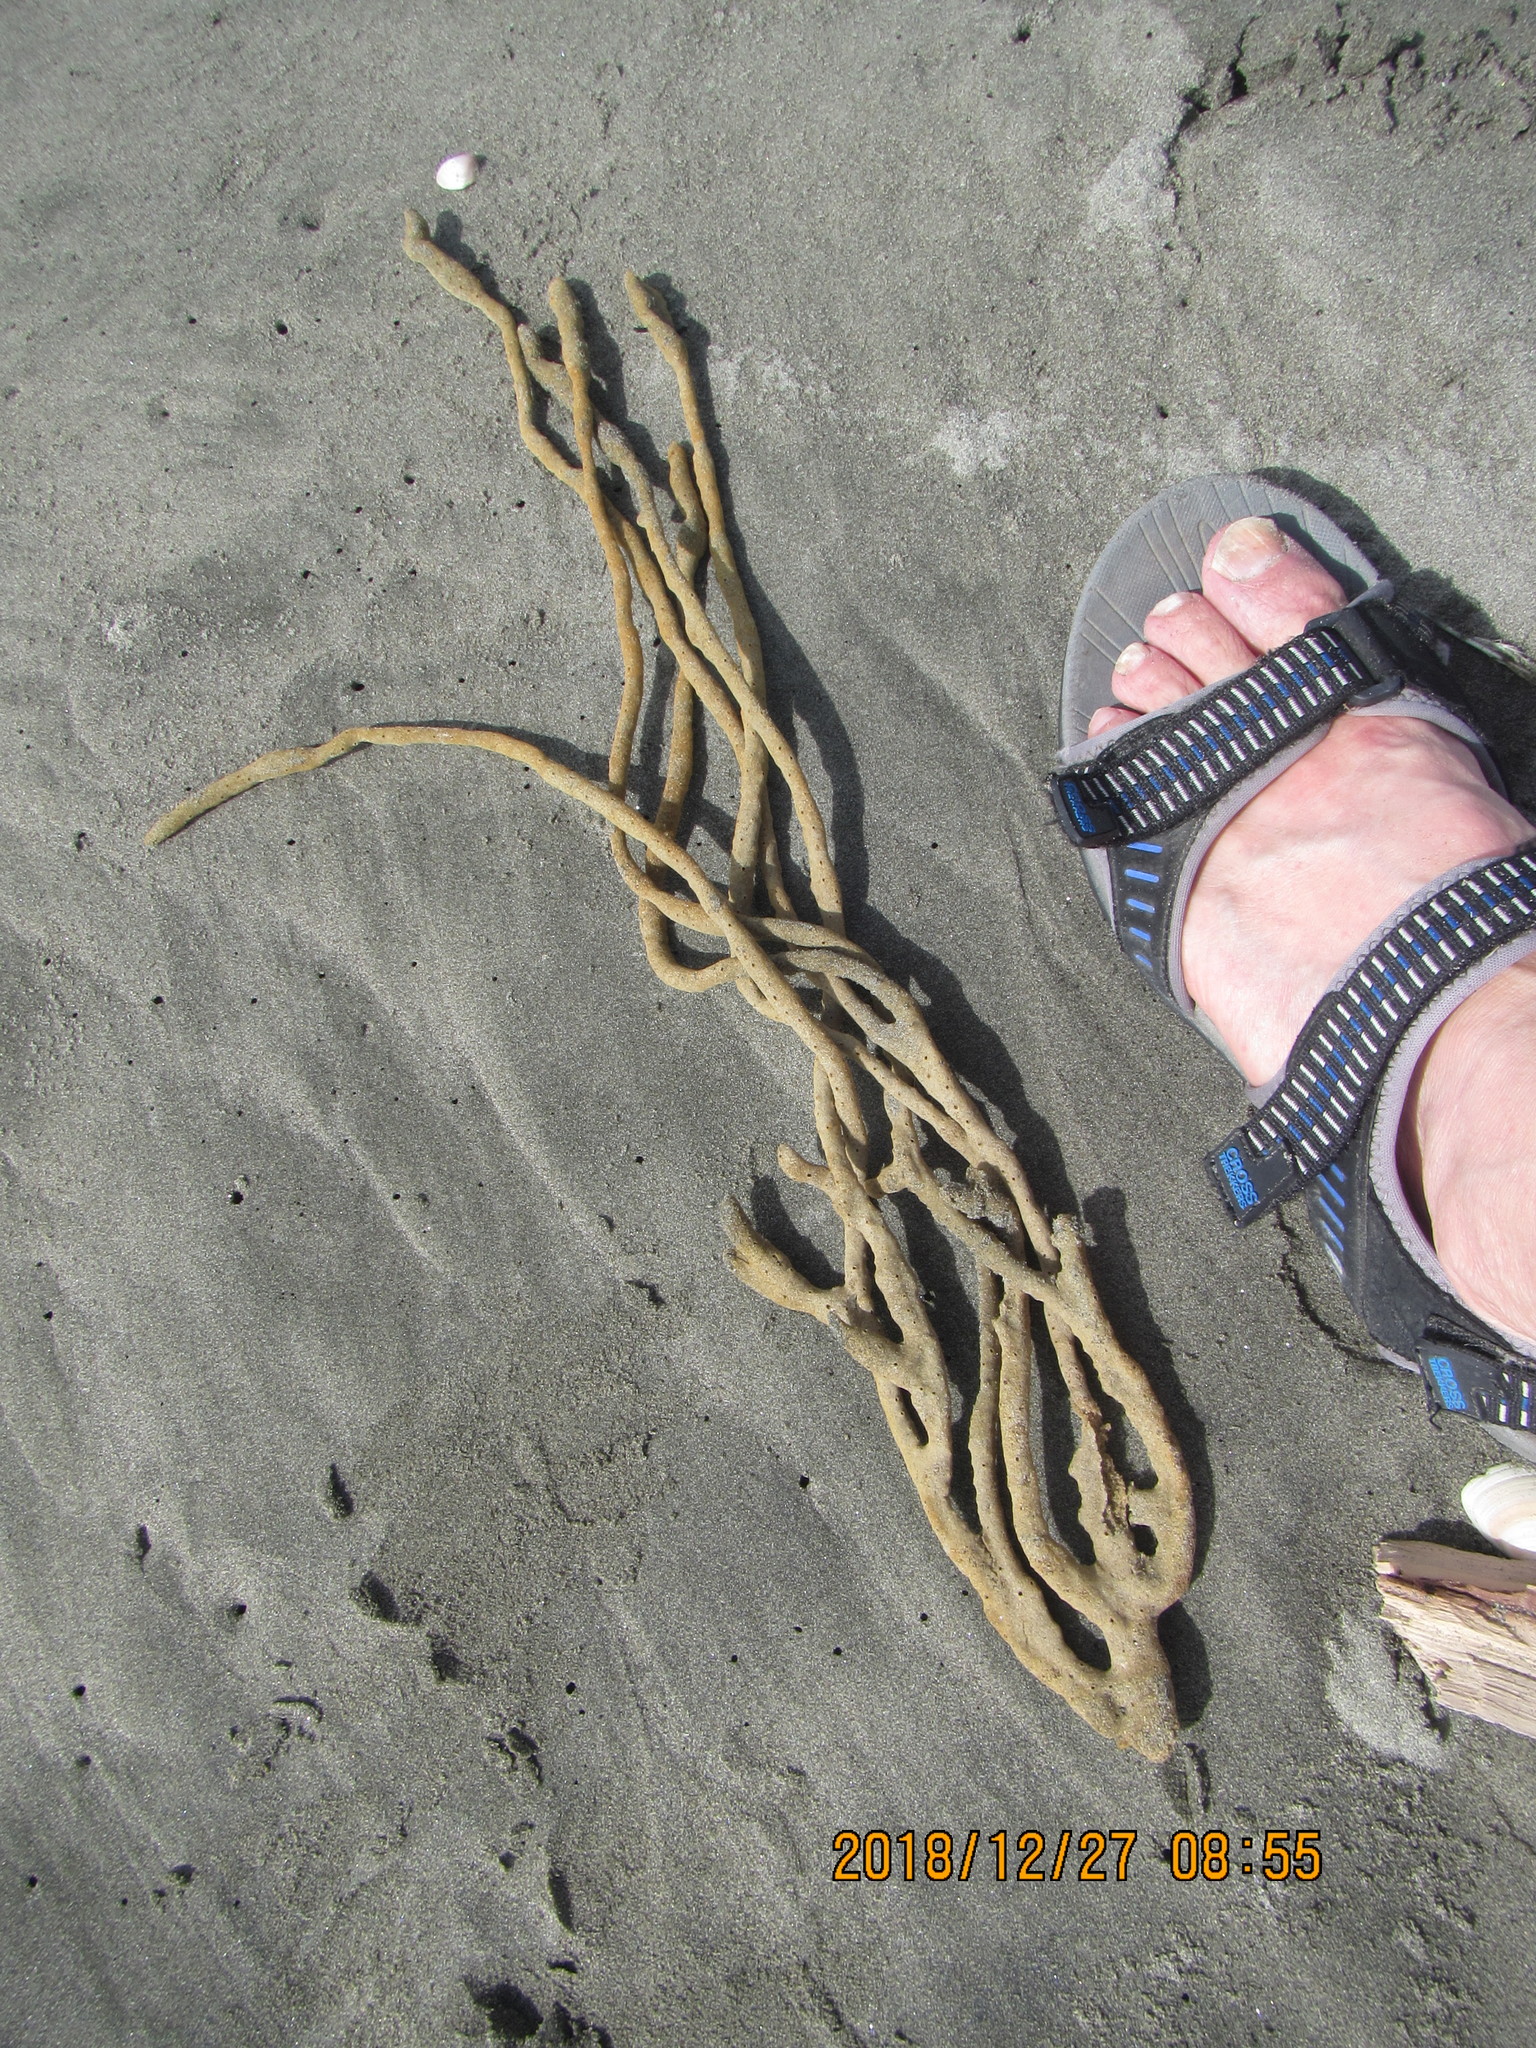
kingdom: Animalia
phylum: Porifera
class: Demospongiae
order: Haplosclerida
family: Callyspongiidae
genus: Callyspongia
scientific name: Callyspongia nuda
